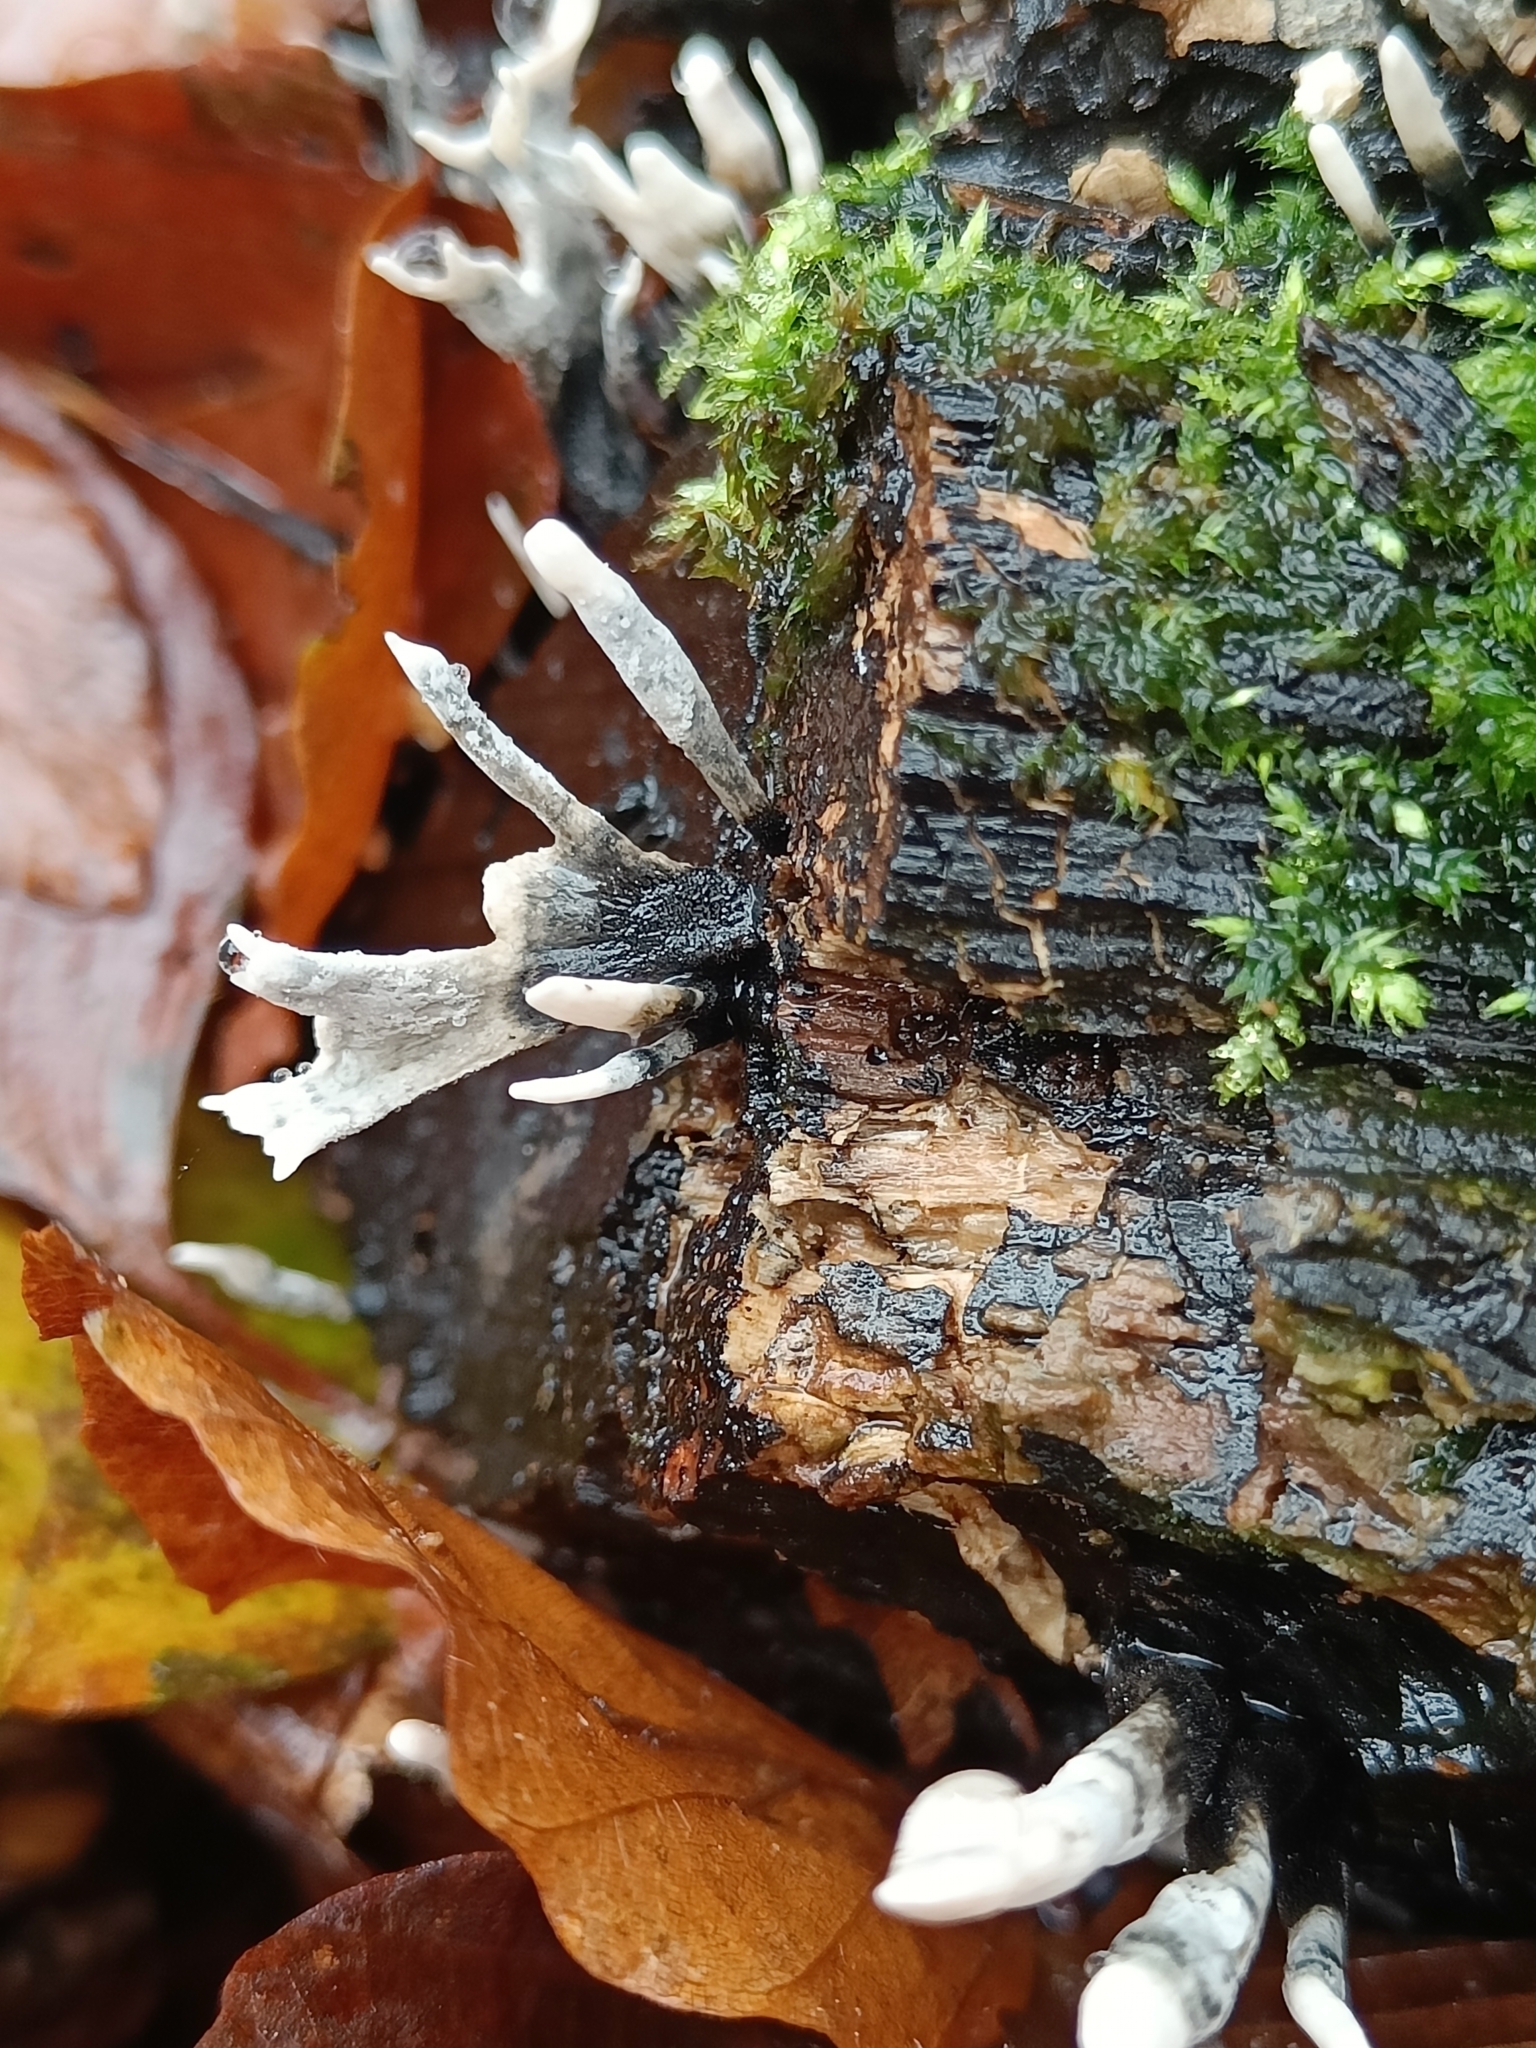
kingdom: Fungi
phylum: Ascomycota
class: Sordariomycetes
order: Xylariales
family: Xylariaceae
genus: Xylaria
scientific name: Xylaria hypoxylon
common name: Candle-snuff fungus
